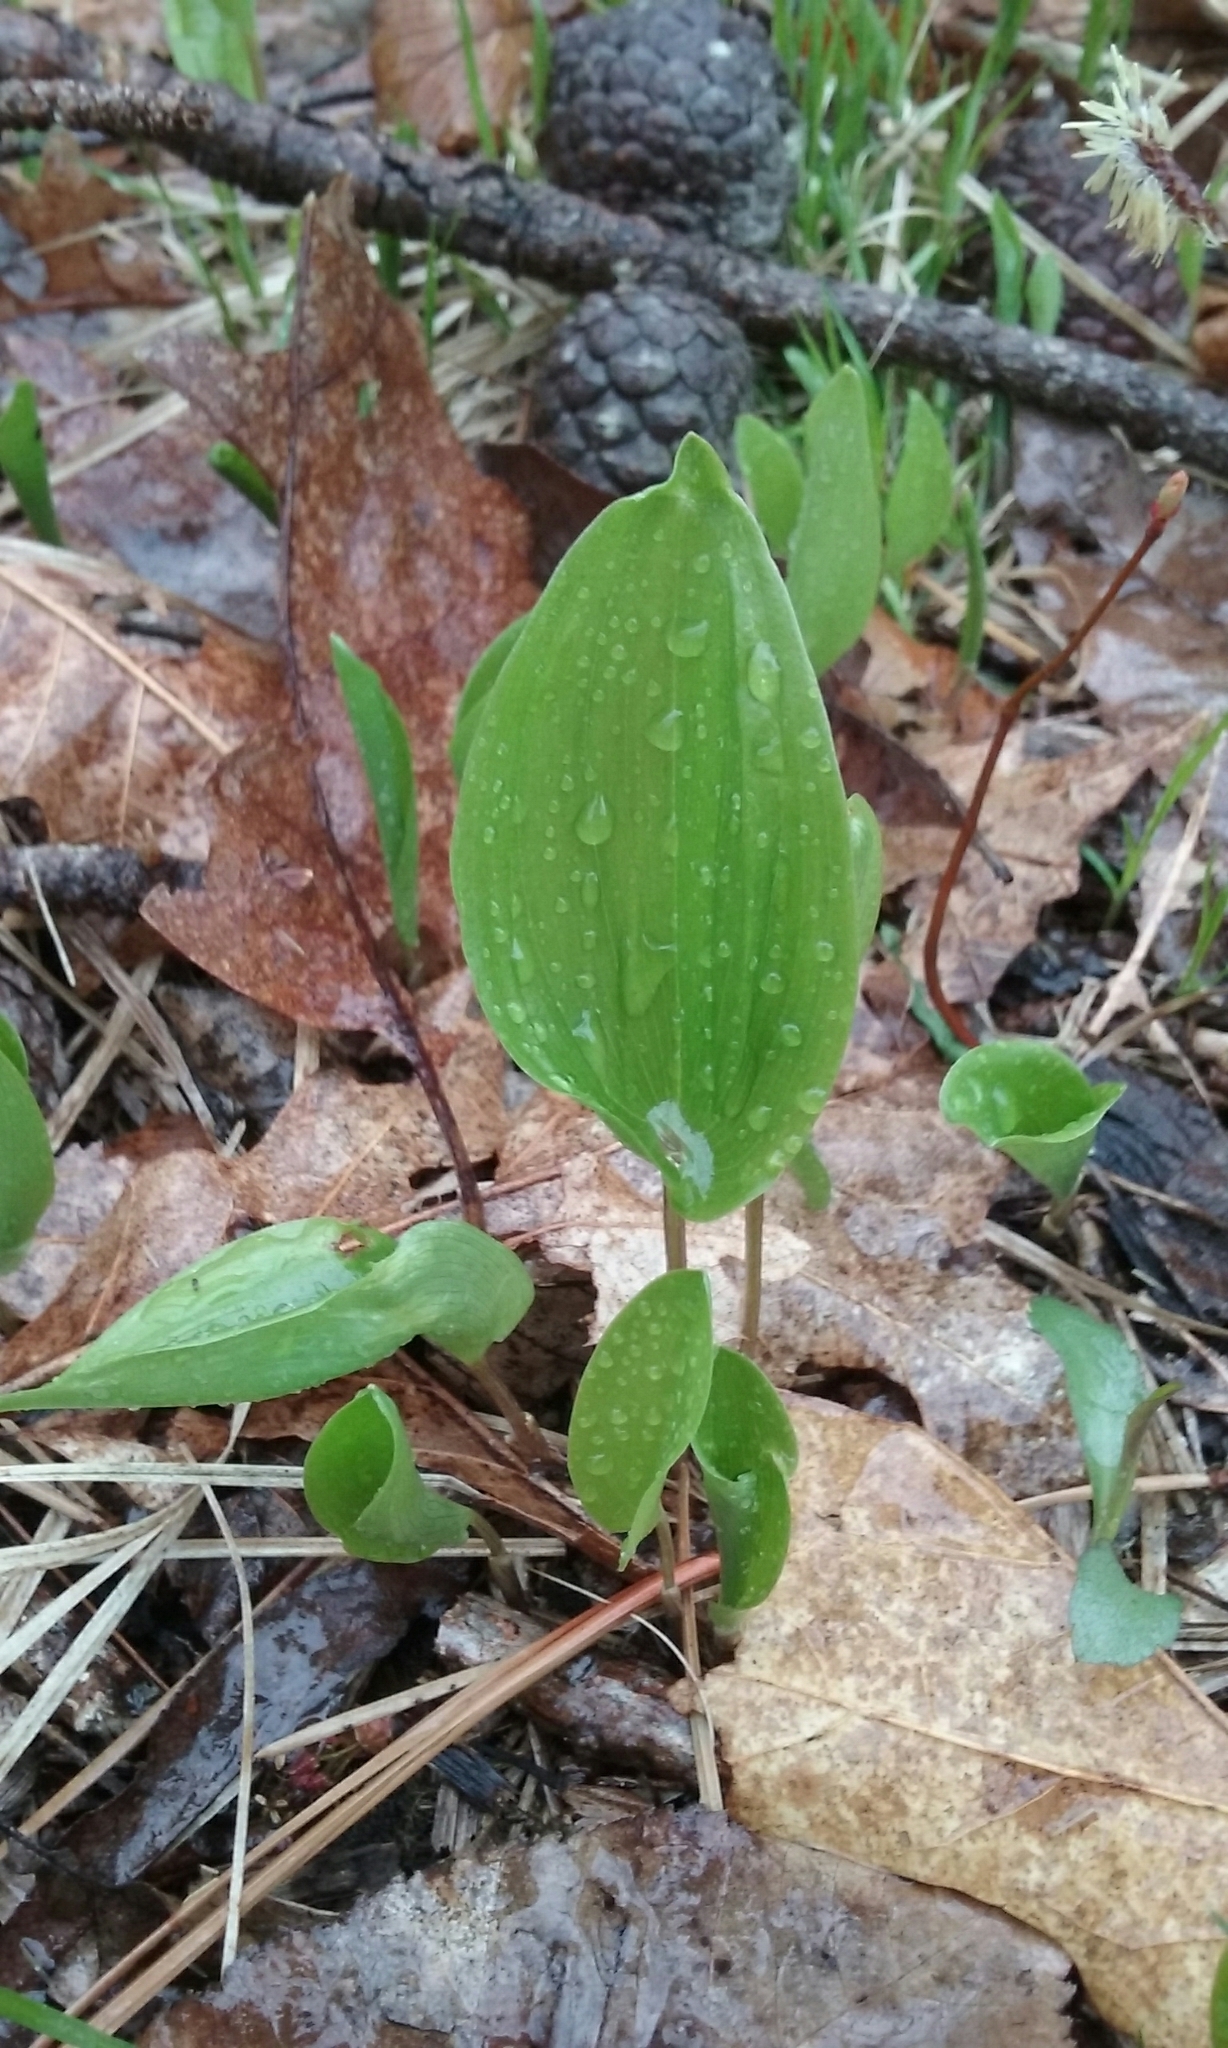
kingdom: Plantae
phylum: Tracheophyta
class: Liliopsida
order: Asparagales
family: Asparagaceae
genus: Maianthemum
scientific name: Maianthemum canadense
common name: False lily-of-the-valley
